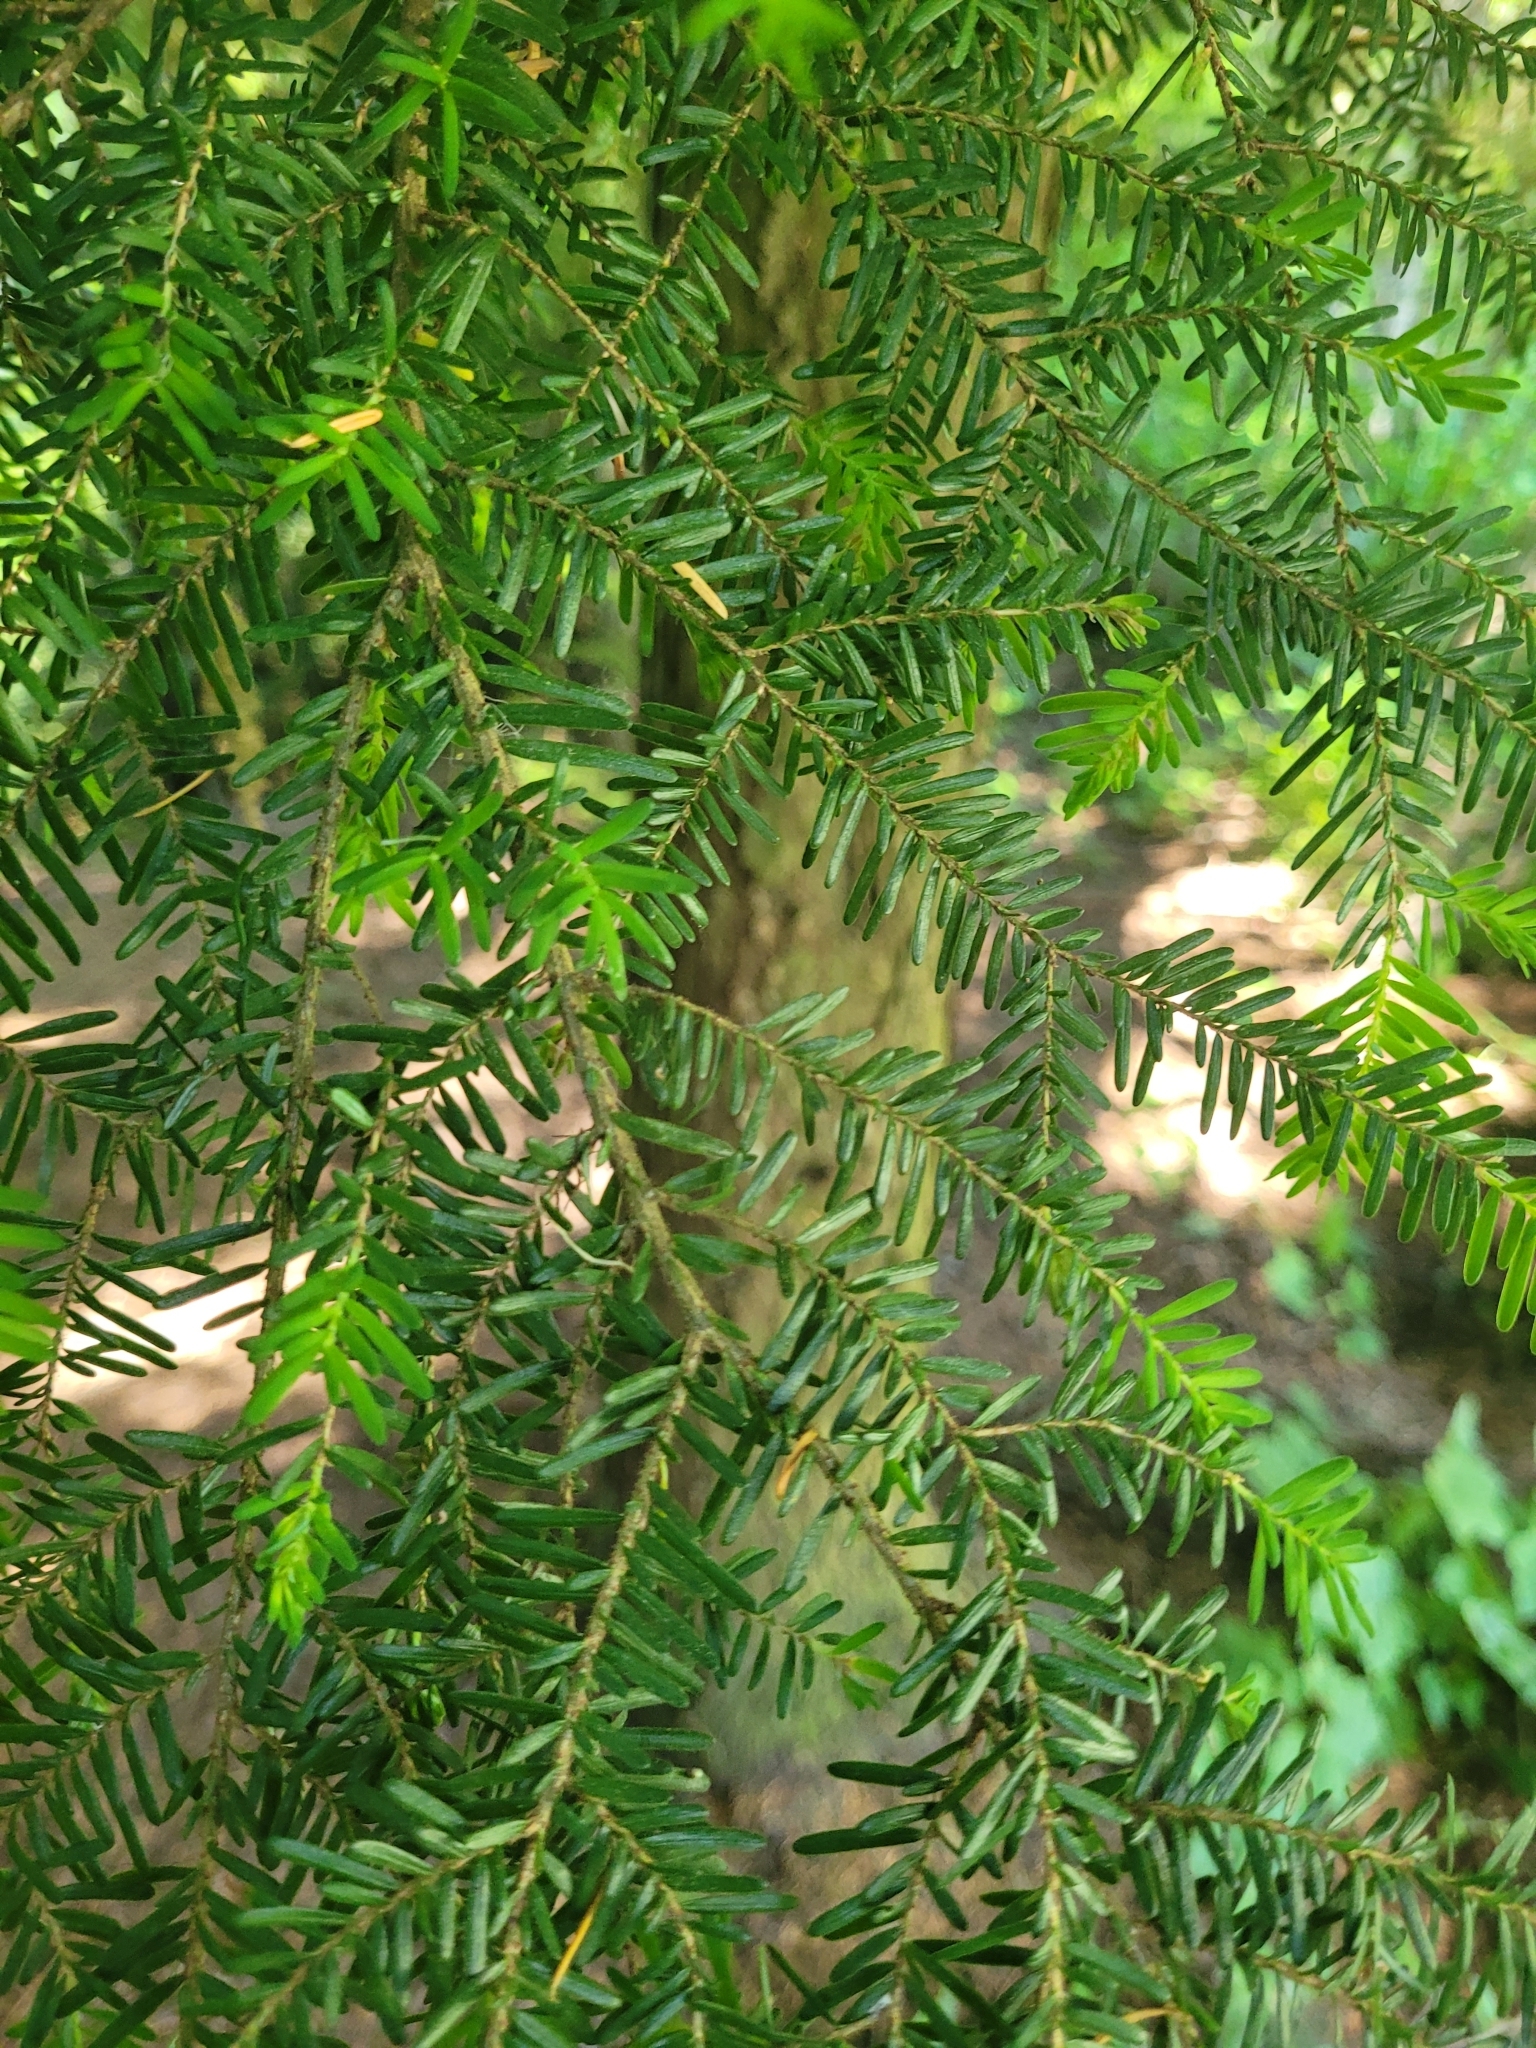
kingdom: Plantae
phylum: Tracheophyta
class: Pinopsida
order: Pinales
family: Pinaceae
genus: Tsuga
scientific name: Tsuga heterophylla
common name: Western hemlock
